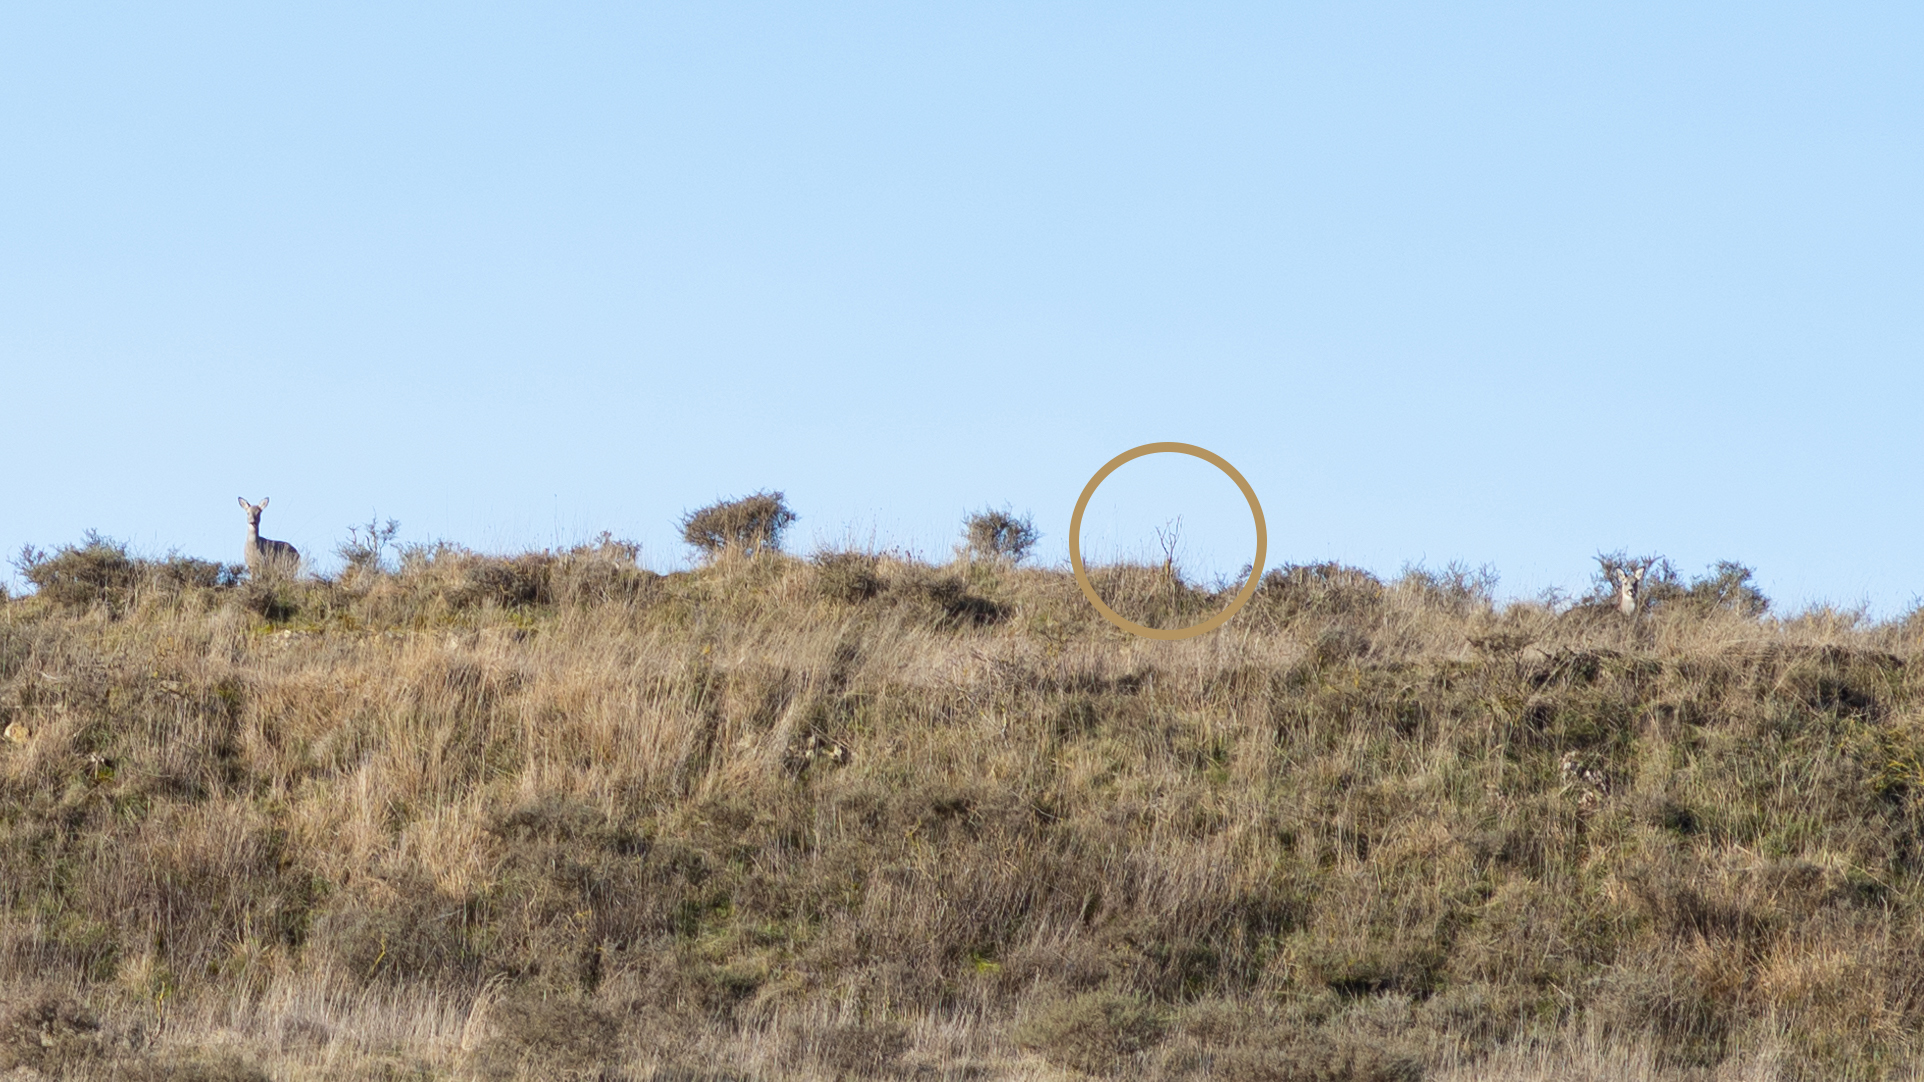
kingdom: Animalia
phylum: Chordata
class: Mammalia
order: Artiodactyla
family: Cervidae
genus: Capreolus
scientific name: Capreolus capreolus
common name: Western roe deer
